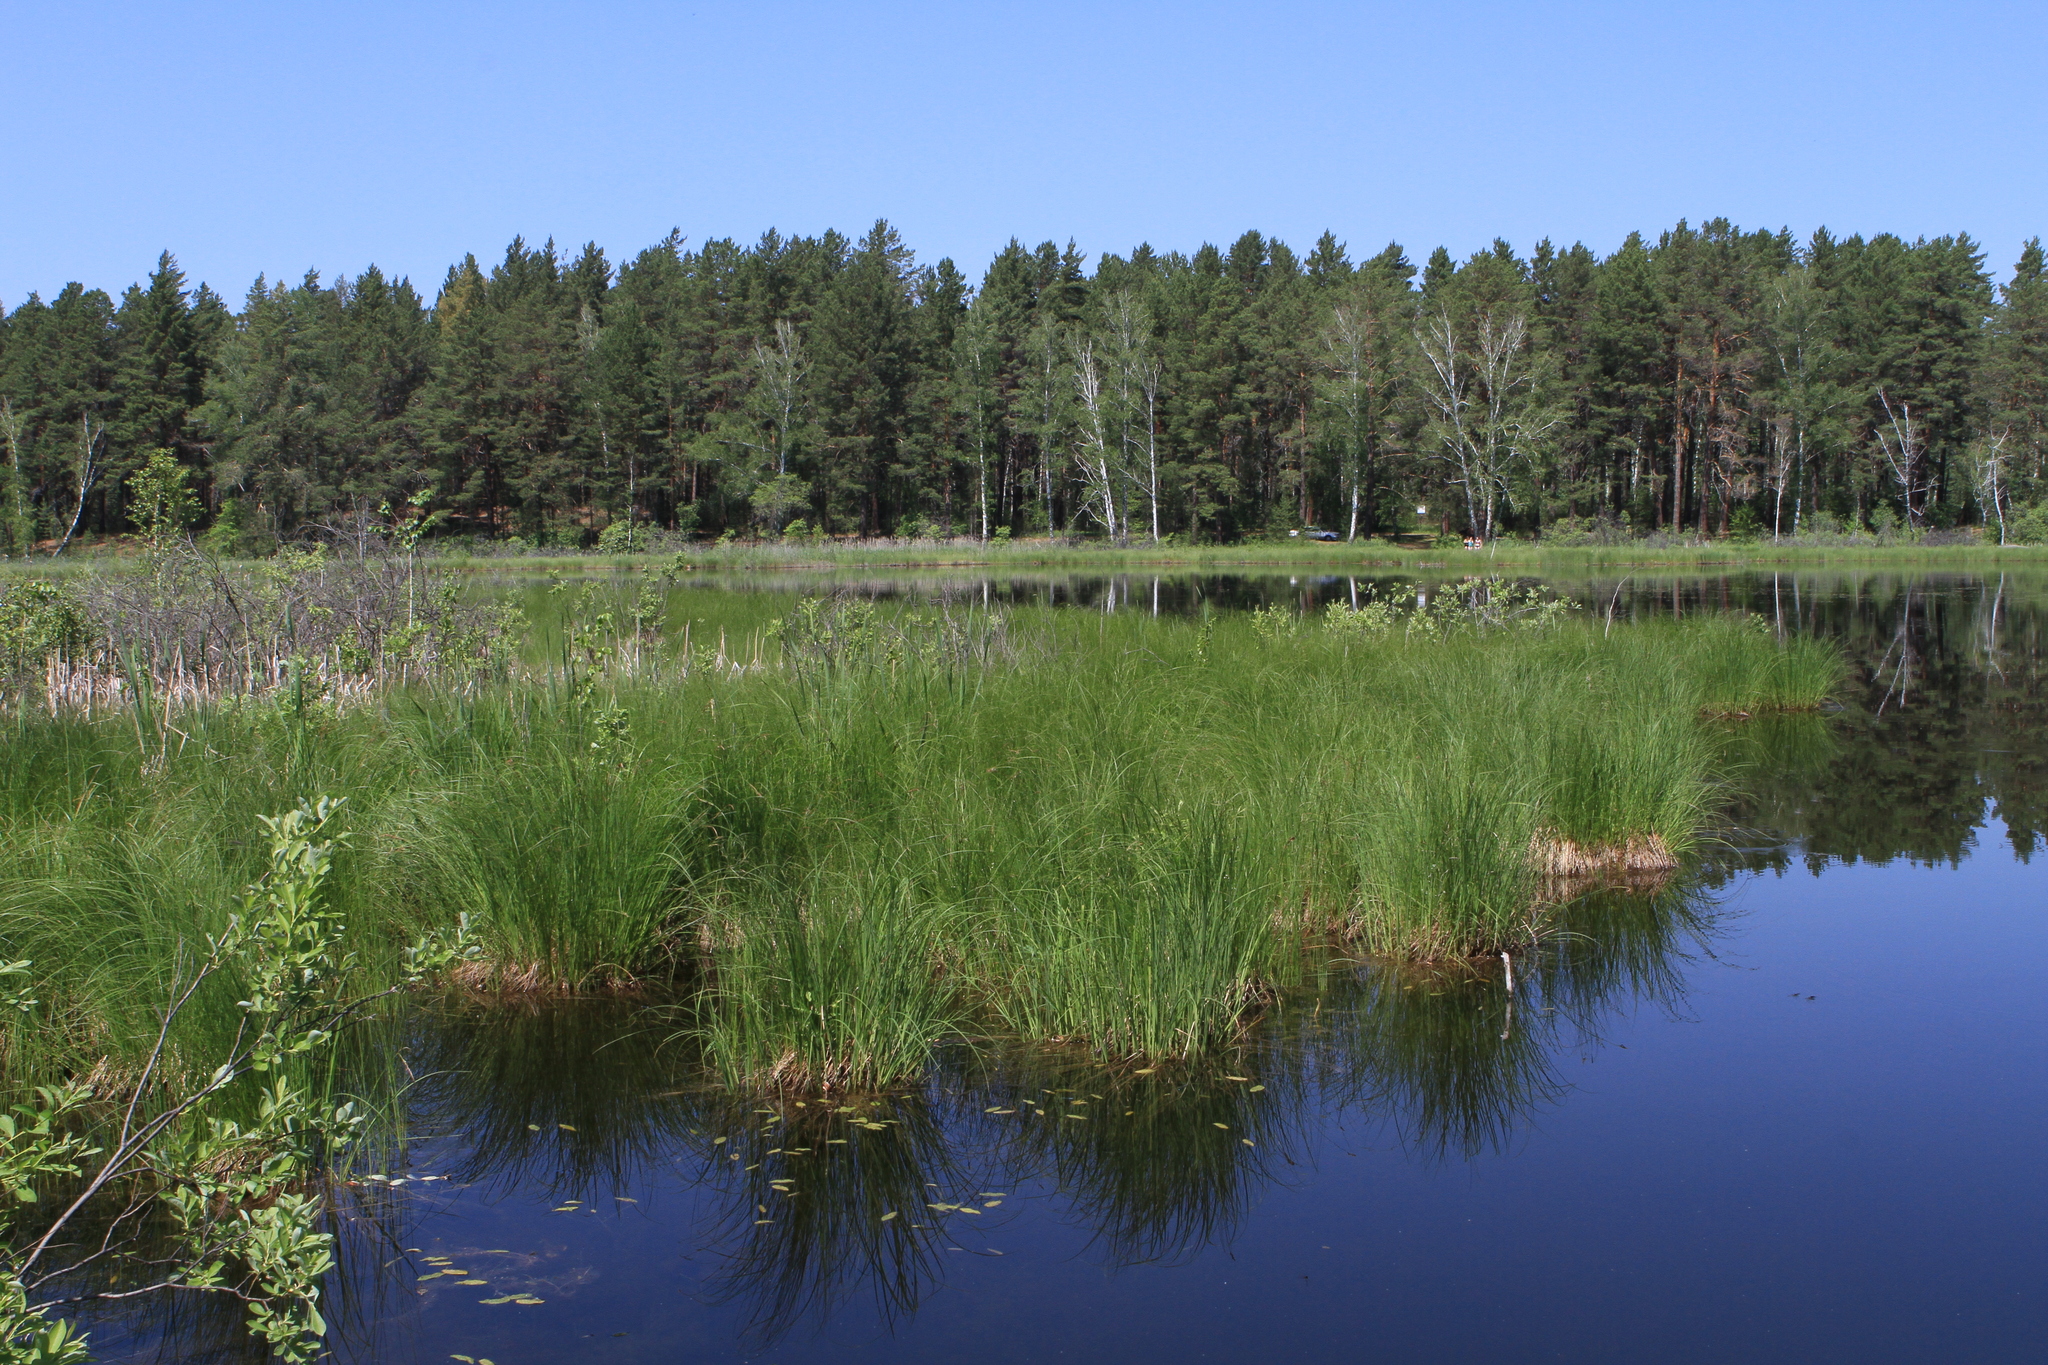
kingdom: Plantae
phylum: Tracheophyta
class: Pinopsida
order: Pinales
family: Pinaceae
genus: Pinus
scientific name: Pinus sylvestris
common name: Scots pine
